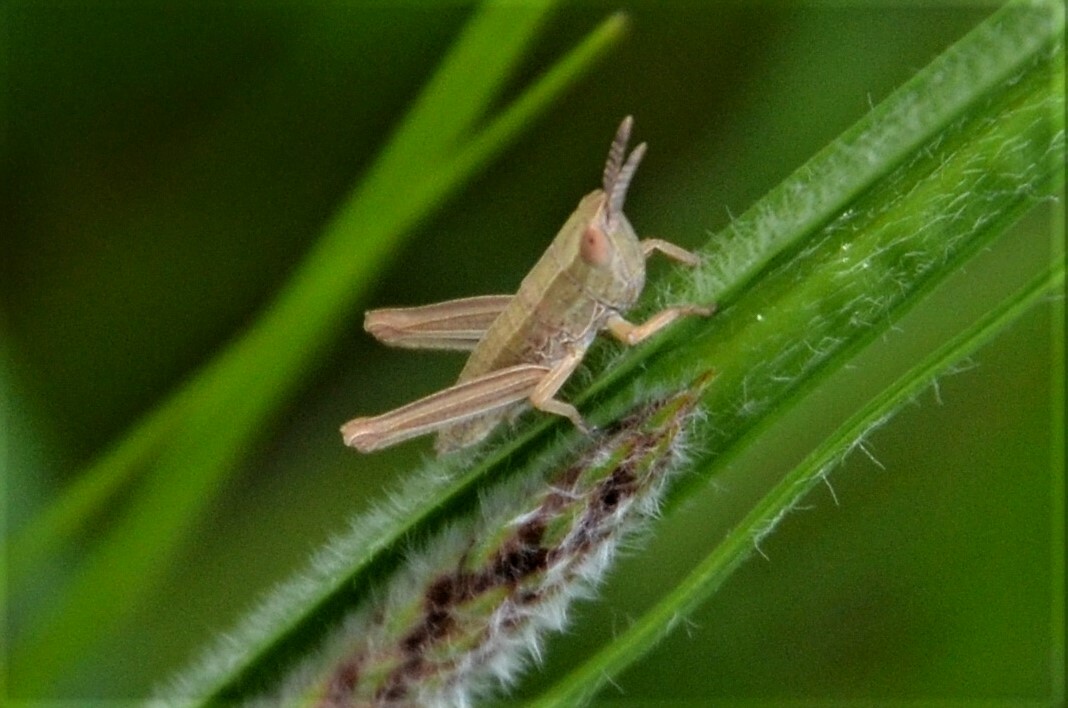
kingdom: Animalia
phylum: Arthropoda
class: Insecta
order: Orthoptera
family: Acrididae
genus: Euthystira
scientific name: Euthystira brachyptera
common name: Small gold grasshopper
